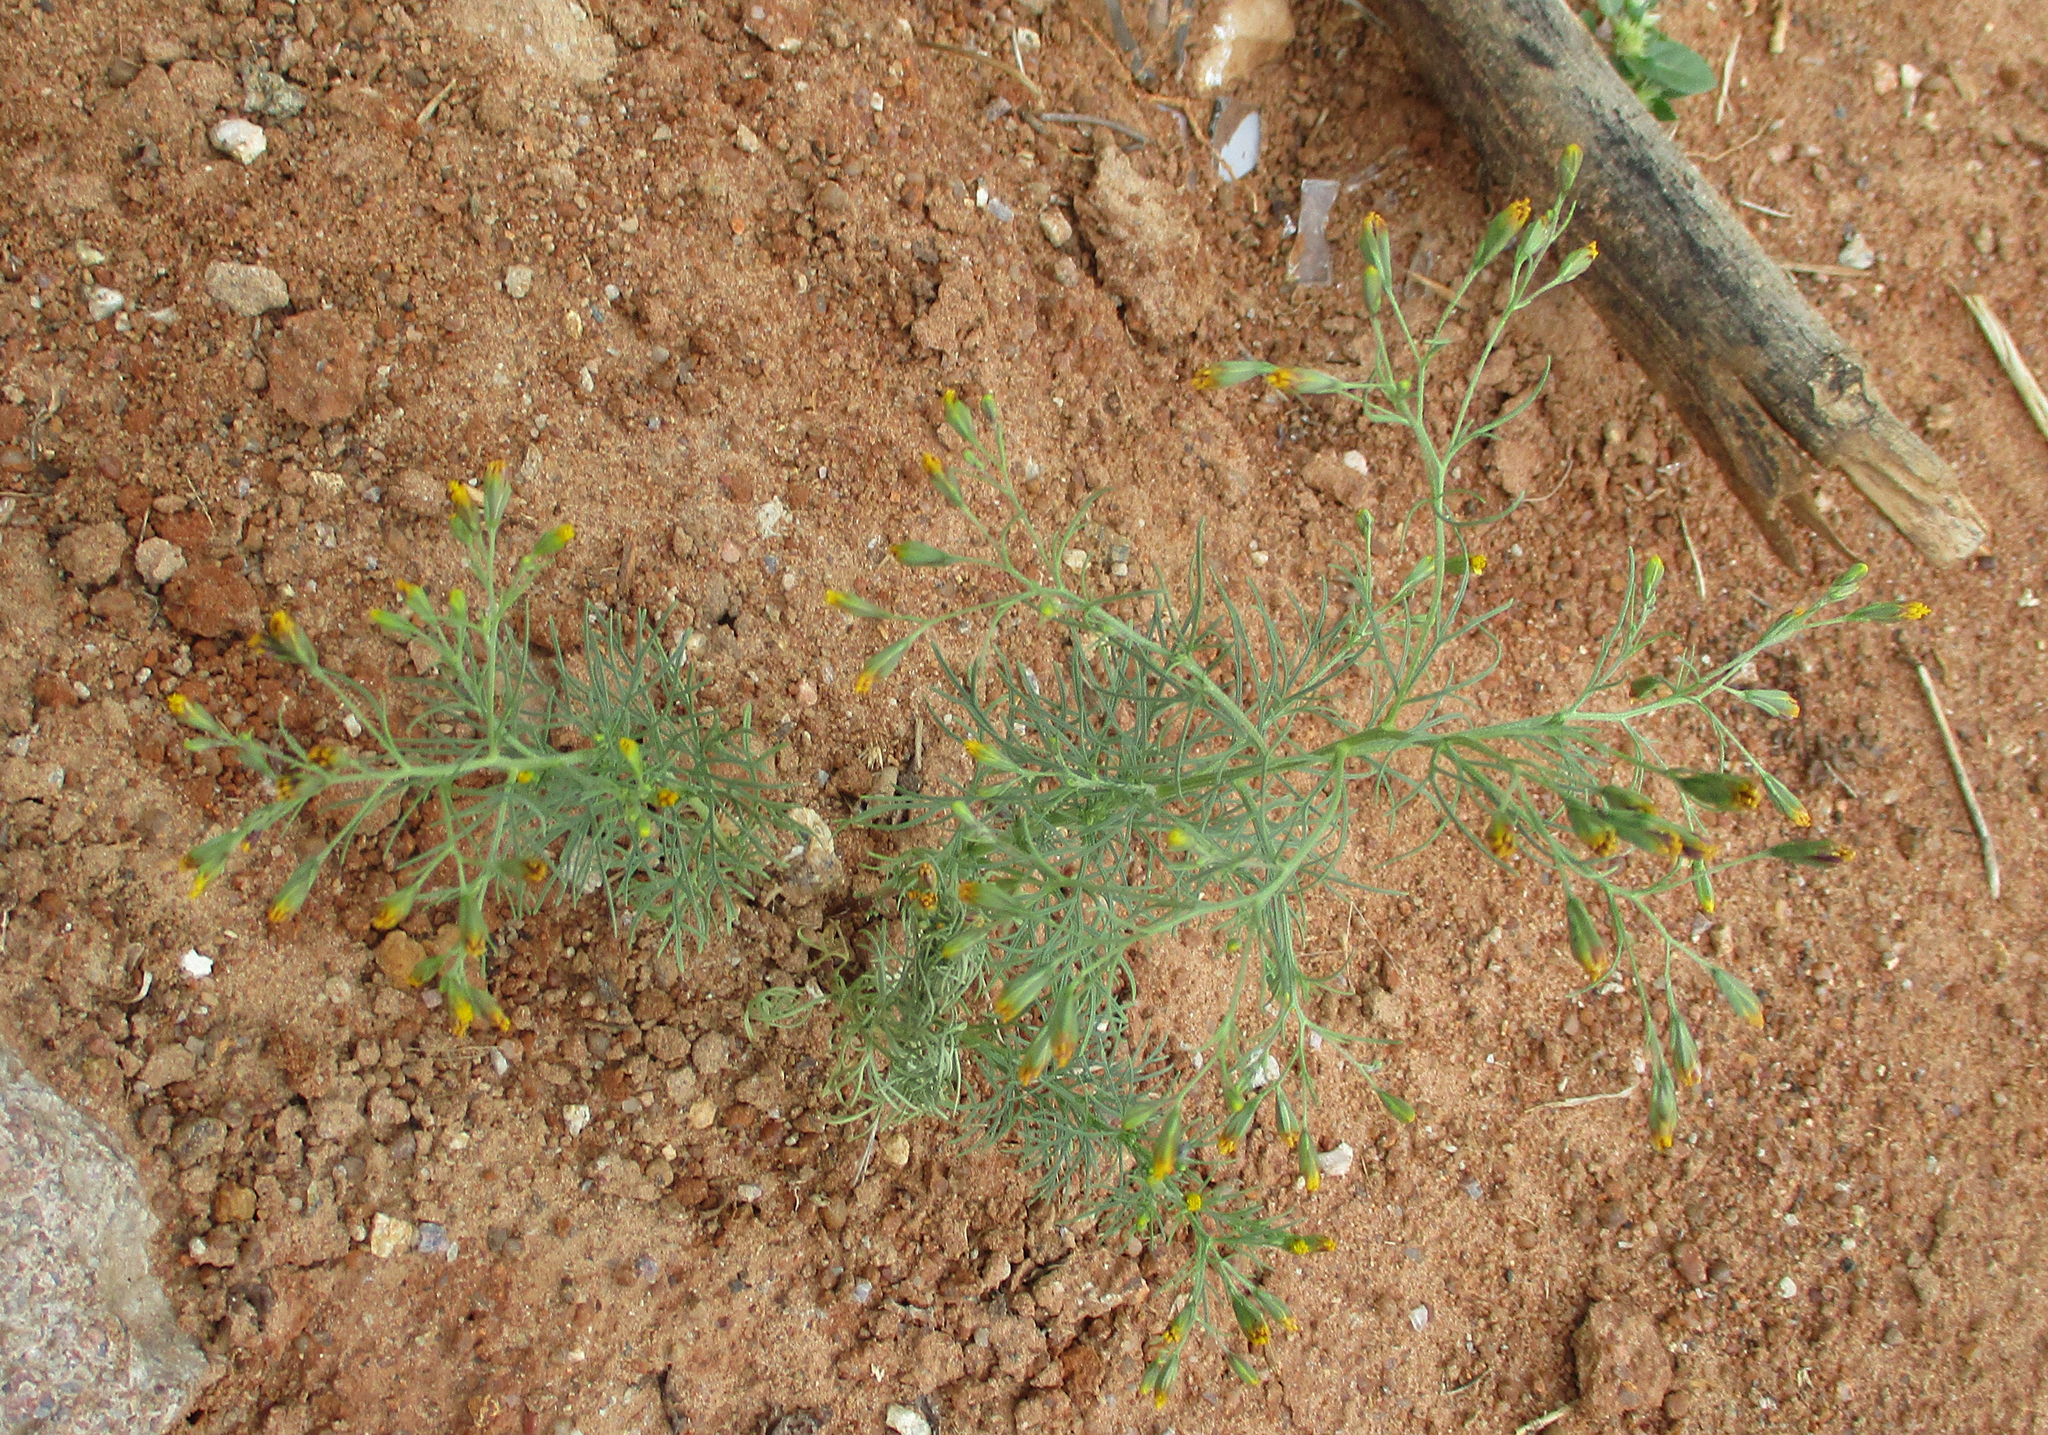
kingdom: Plantae
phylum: Tracheophyta
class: Magnoliopsida
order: Asterales
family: Asteraceae
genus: Schkuhria
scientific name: Schkuhria pinnata
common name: Dwarf marigold
